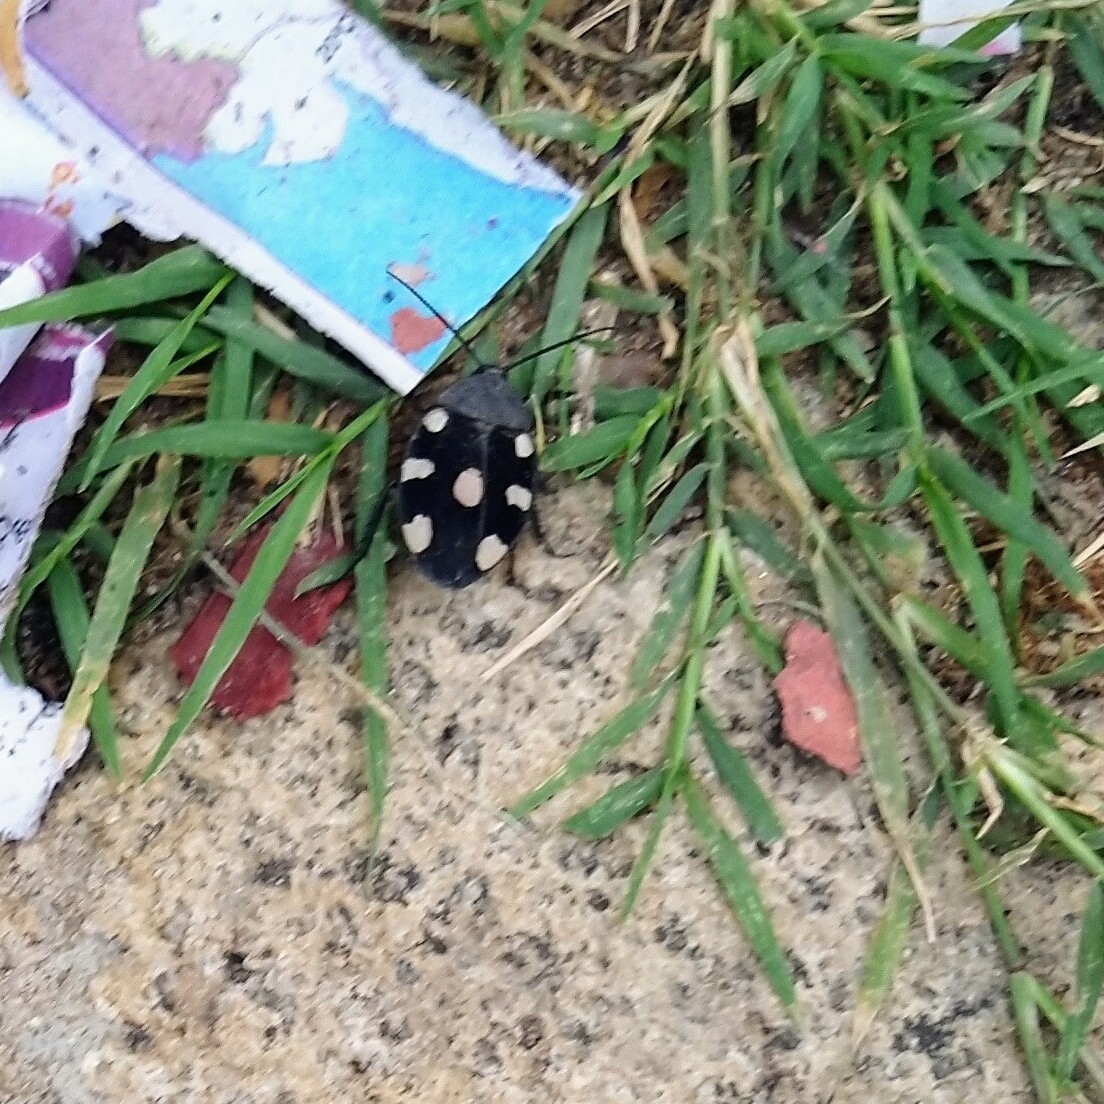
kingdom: Animalia
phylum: Arthropoda
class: Insecta
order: Blattodea
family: Corydiidae
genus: Therea
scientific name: Therea petiveriana
